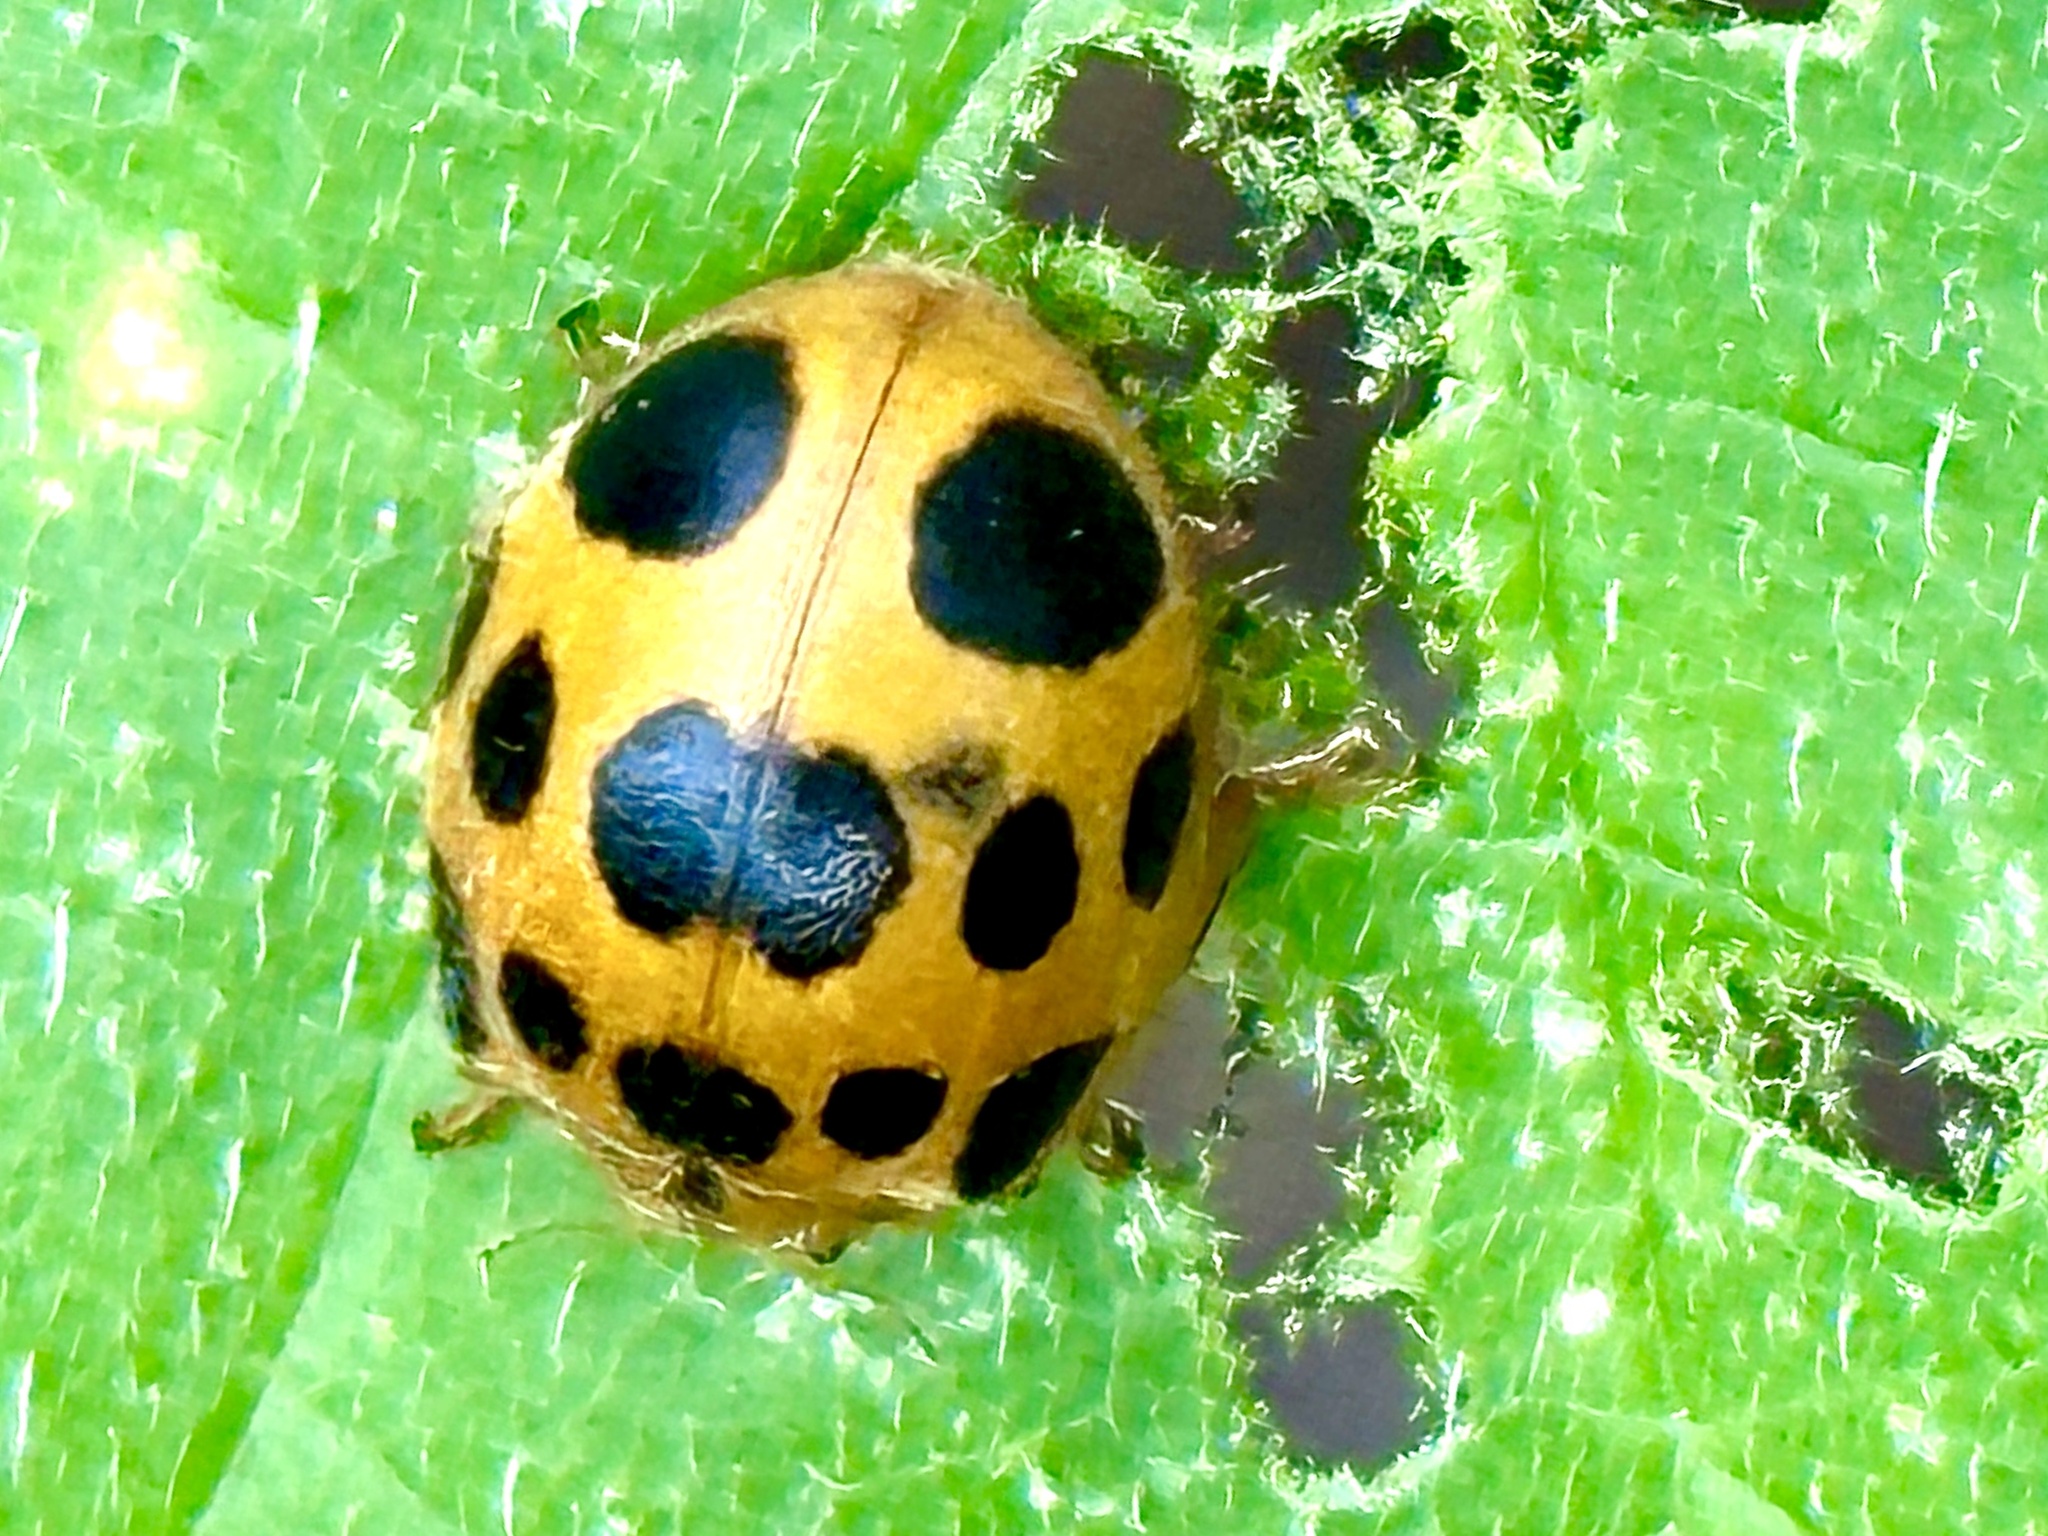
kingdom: Animalia
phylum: Arthropoda
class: Insecta
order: Coleoptera
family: Coccinellidae
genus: Epilachna
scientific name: Epilachna borealis
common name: Squash beetle
